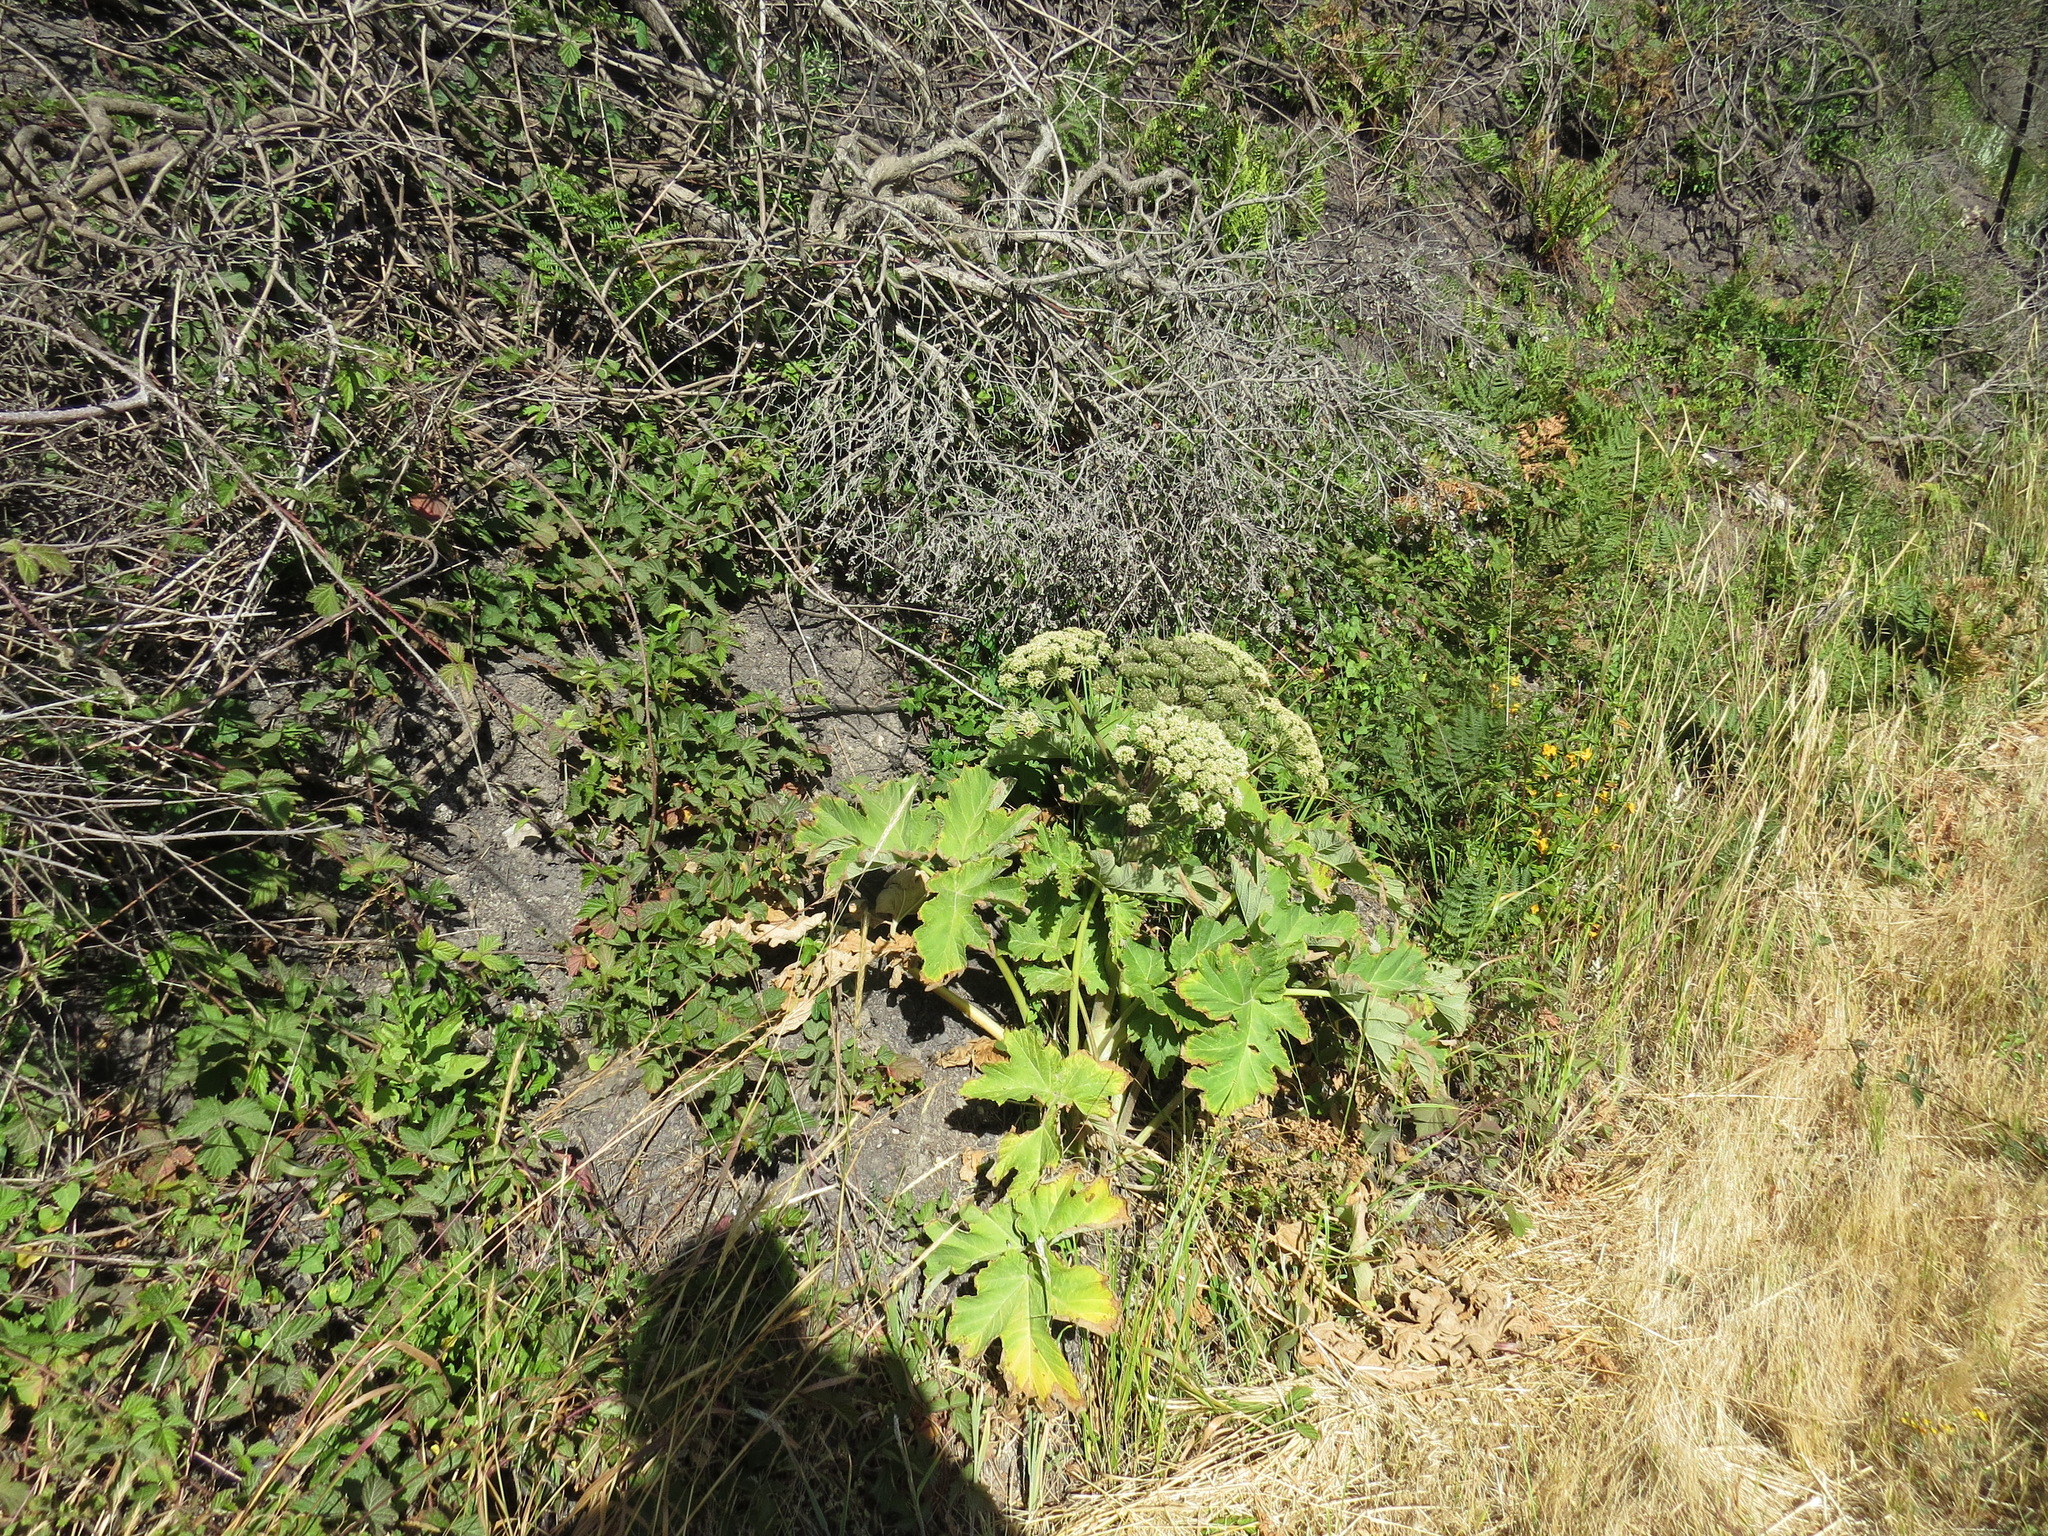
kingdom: Plantae
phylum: Tracheophyta
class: Magnoliopsida
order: Apiales
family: Apiaceae
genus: Heracleum
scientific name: Heracleum maximum
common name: American cow parsnip
